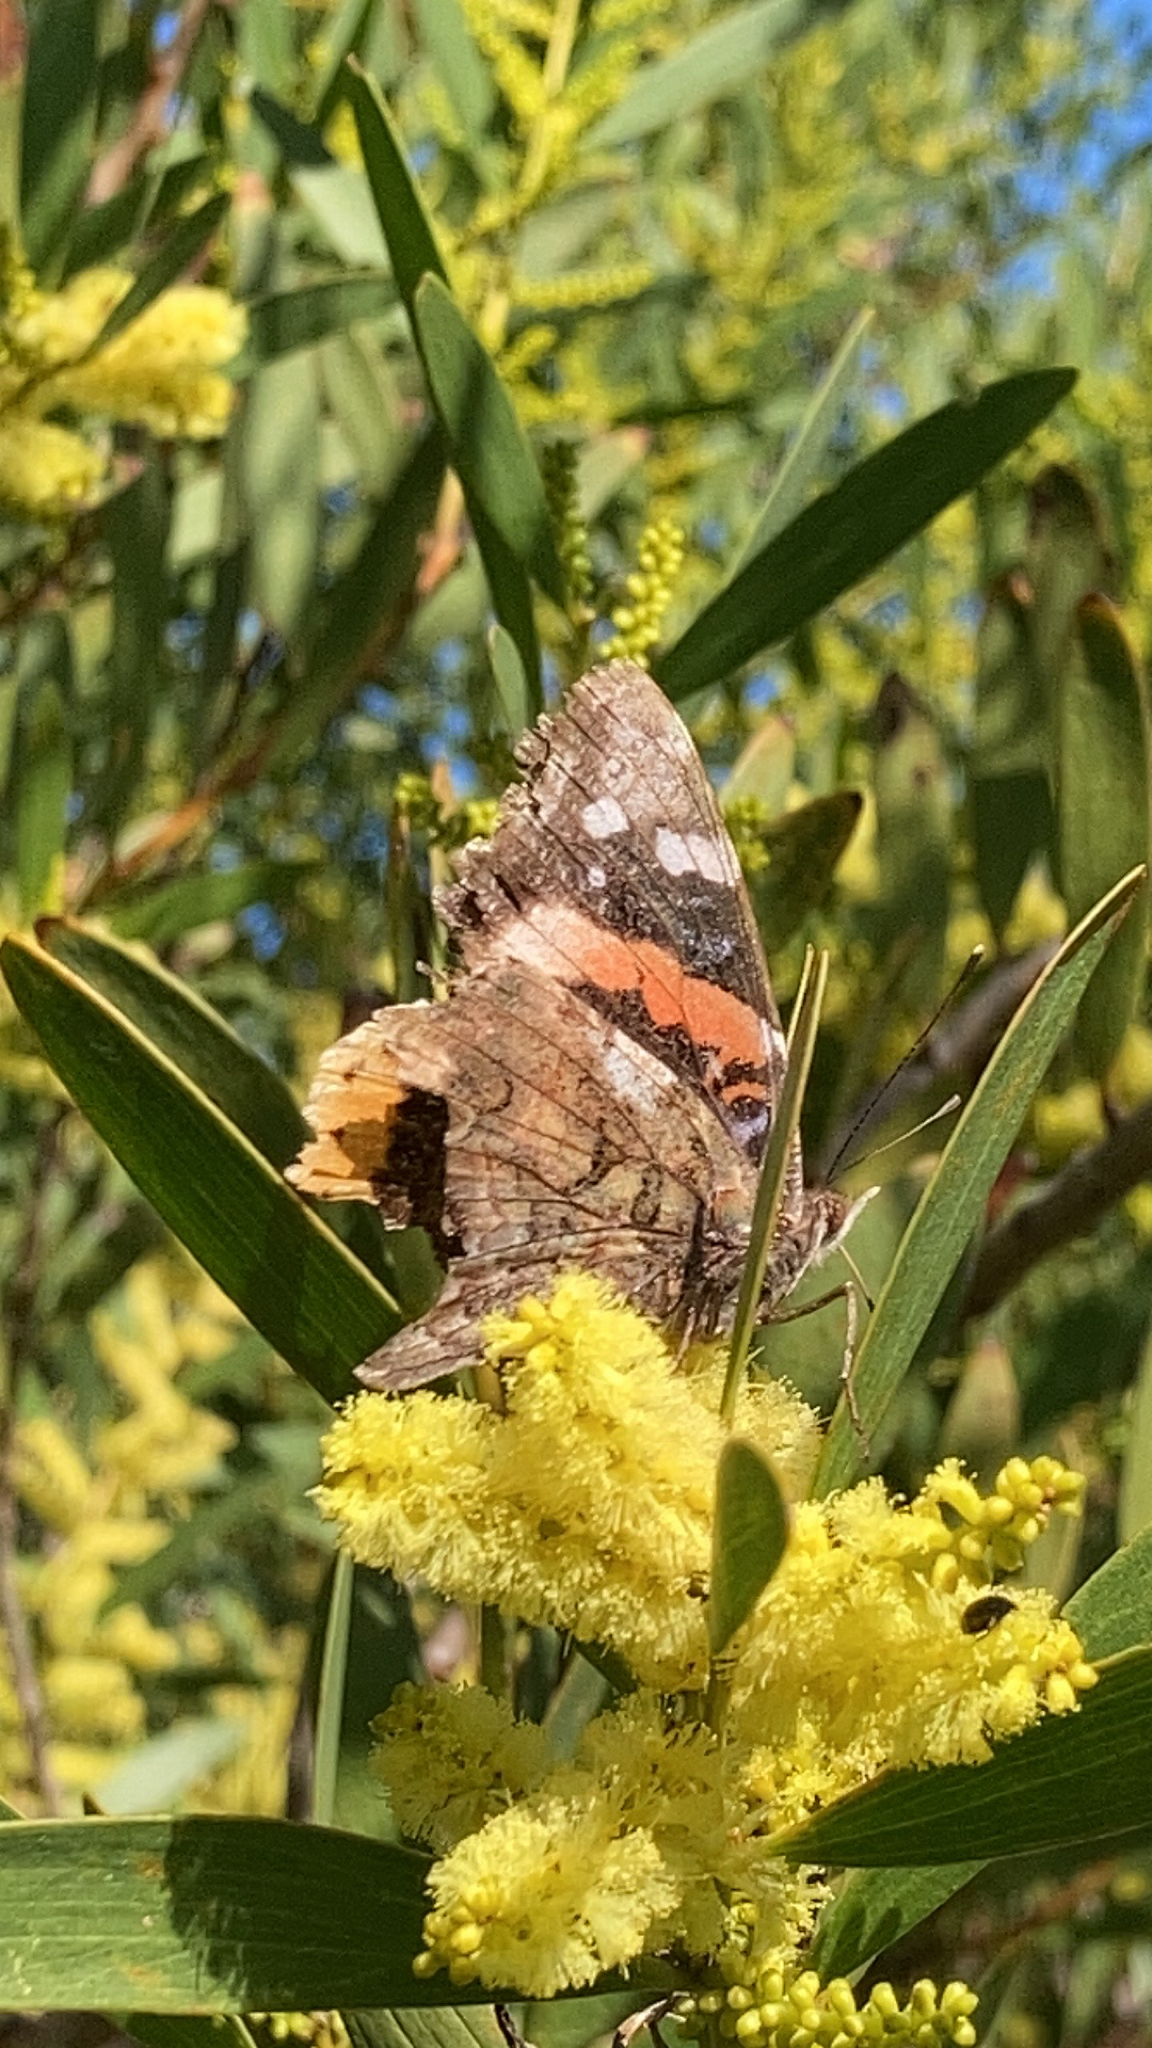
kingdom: Animalia
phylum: Arthropoda
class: Insecta
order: Lepidoptera
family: Nymphalidae
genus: Vanessa
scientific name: Vanessa atalanta
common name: Red admiral
